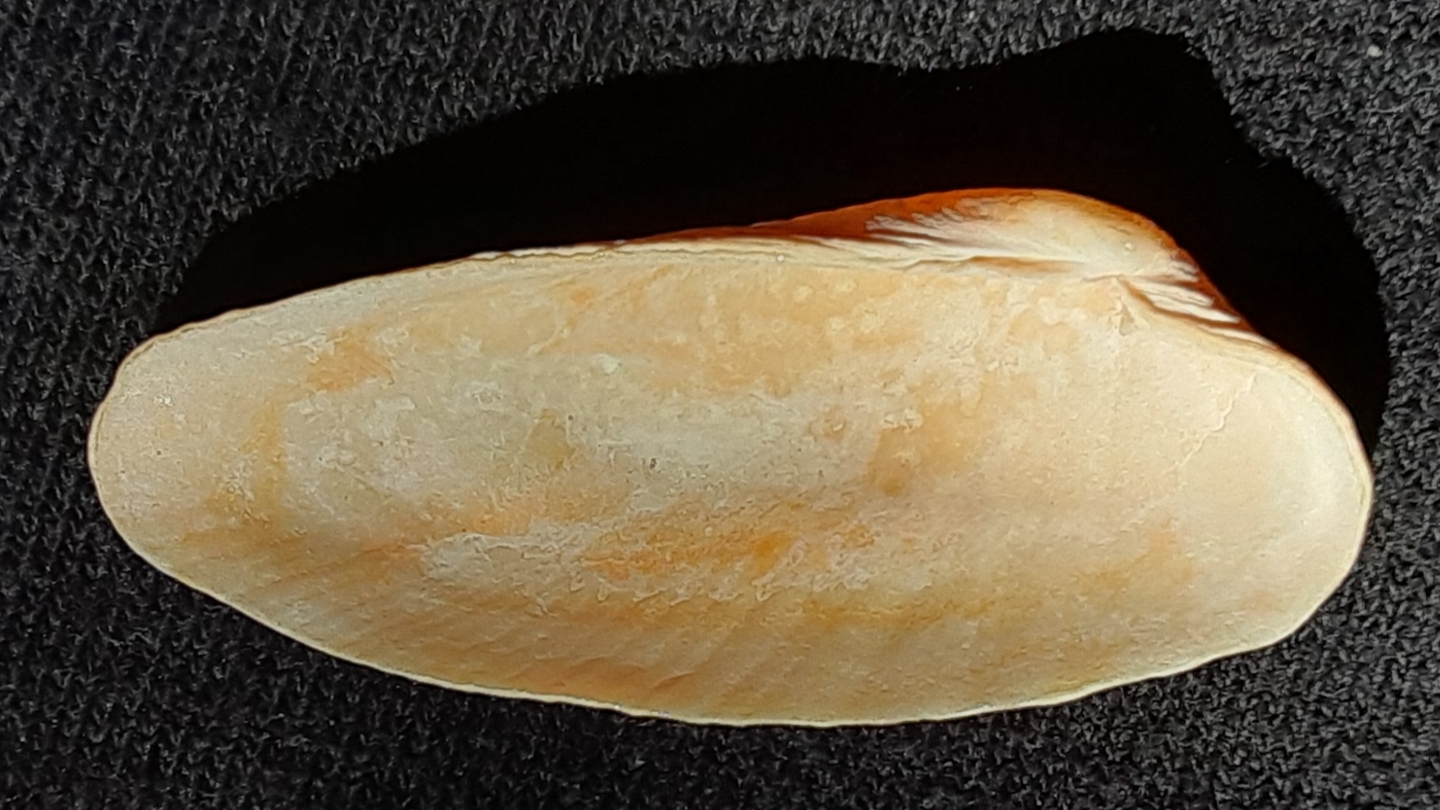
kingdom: Animalia
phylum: Mollusca
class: Bivalvia
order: Venerida
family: Veneridae
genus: Petricolaria
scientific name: Petricolaria pholadiformis
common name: American piddock
